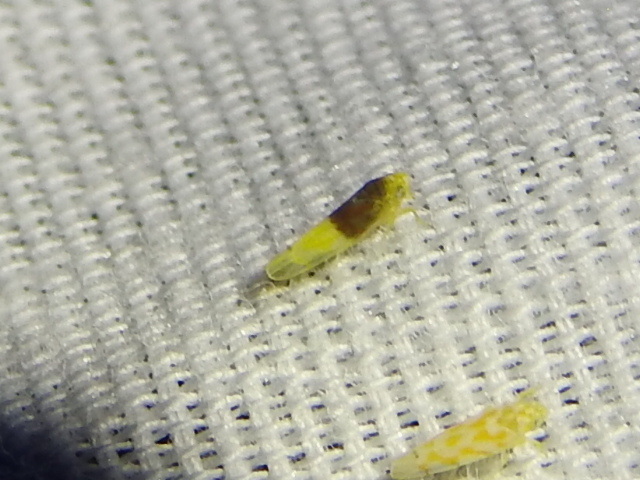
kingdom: Animalia
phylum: Arthropoda
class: Insecta
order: Hemiptera
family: Cicadellidae
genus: Eratoneura
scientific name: Eratoneura basilaris
